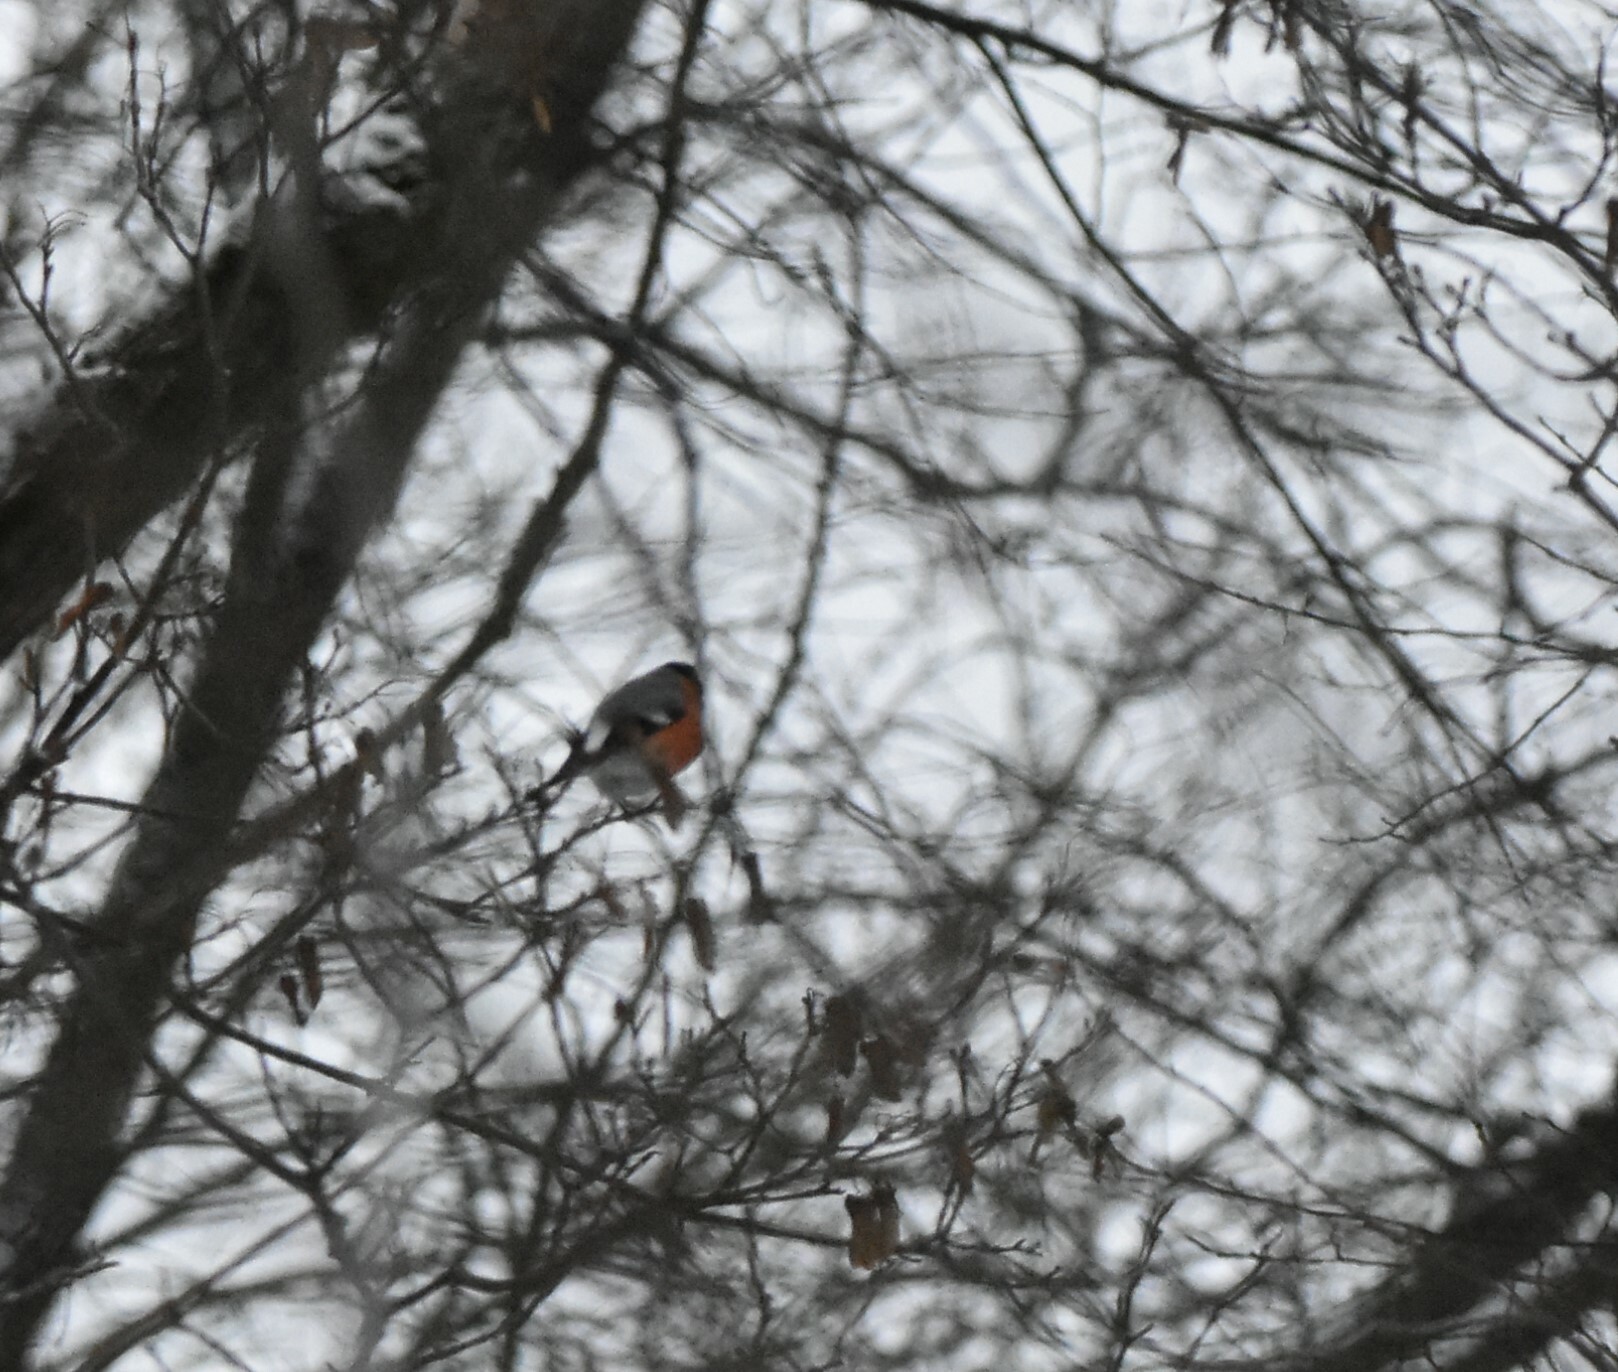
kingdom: Animalia
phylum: Chordata
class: Aves
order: Passeriformes
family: Fringillidae
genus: Pyrrhula
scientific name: Pyrrhula pyrrhula
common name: Eurasian bullfinch
